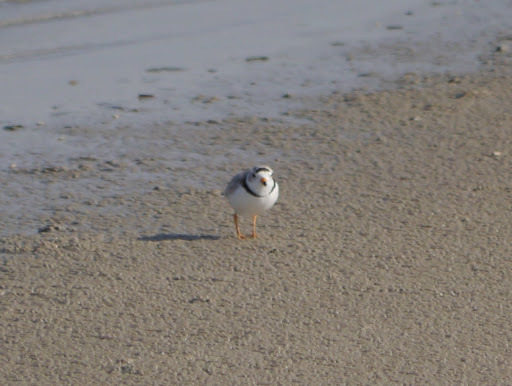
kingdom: Animalia
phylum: Chordata
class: Aves
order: Charadriiformes
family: Charadriidae
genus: Charadrius
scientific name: Charadrius melodus
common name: Piping plover
